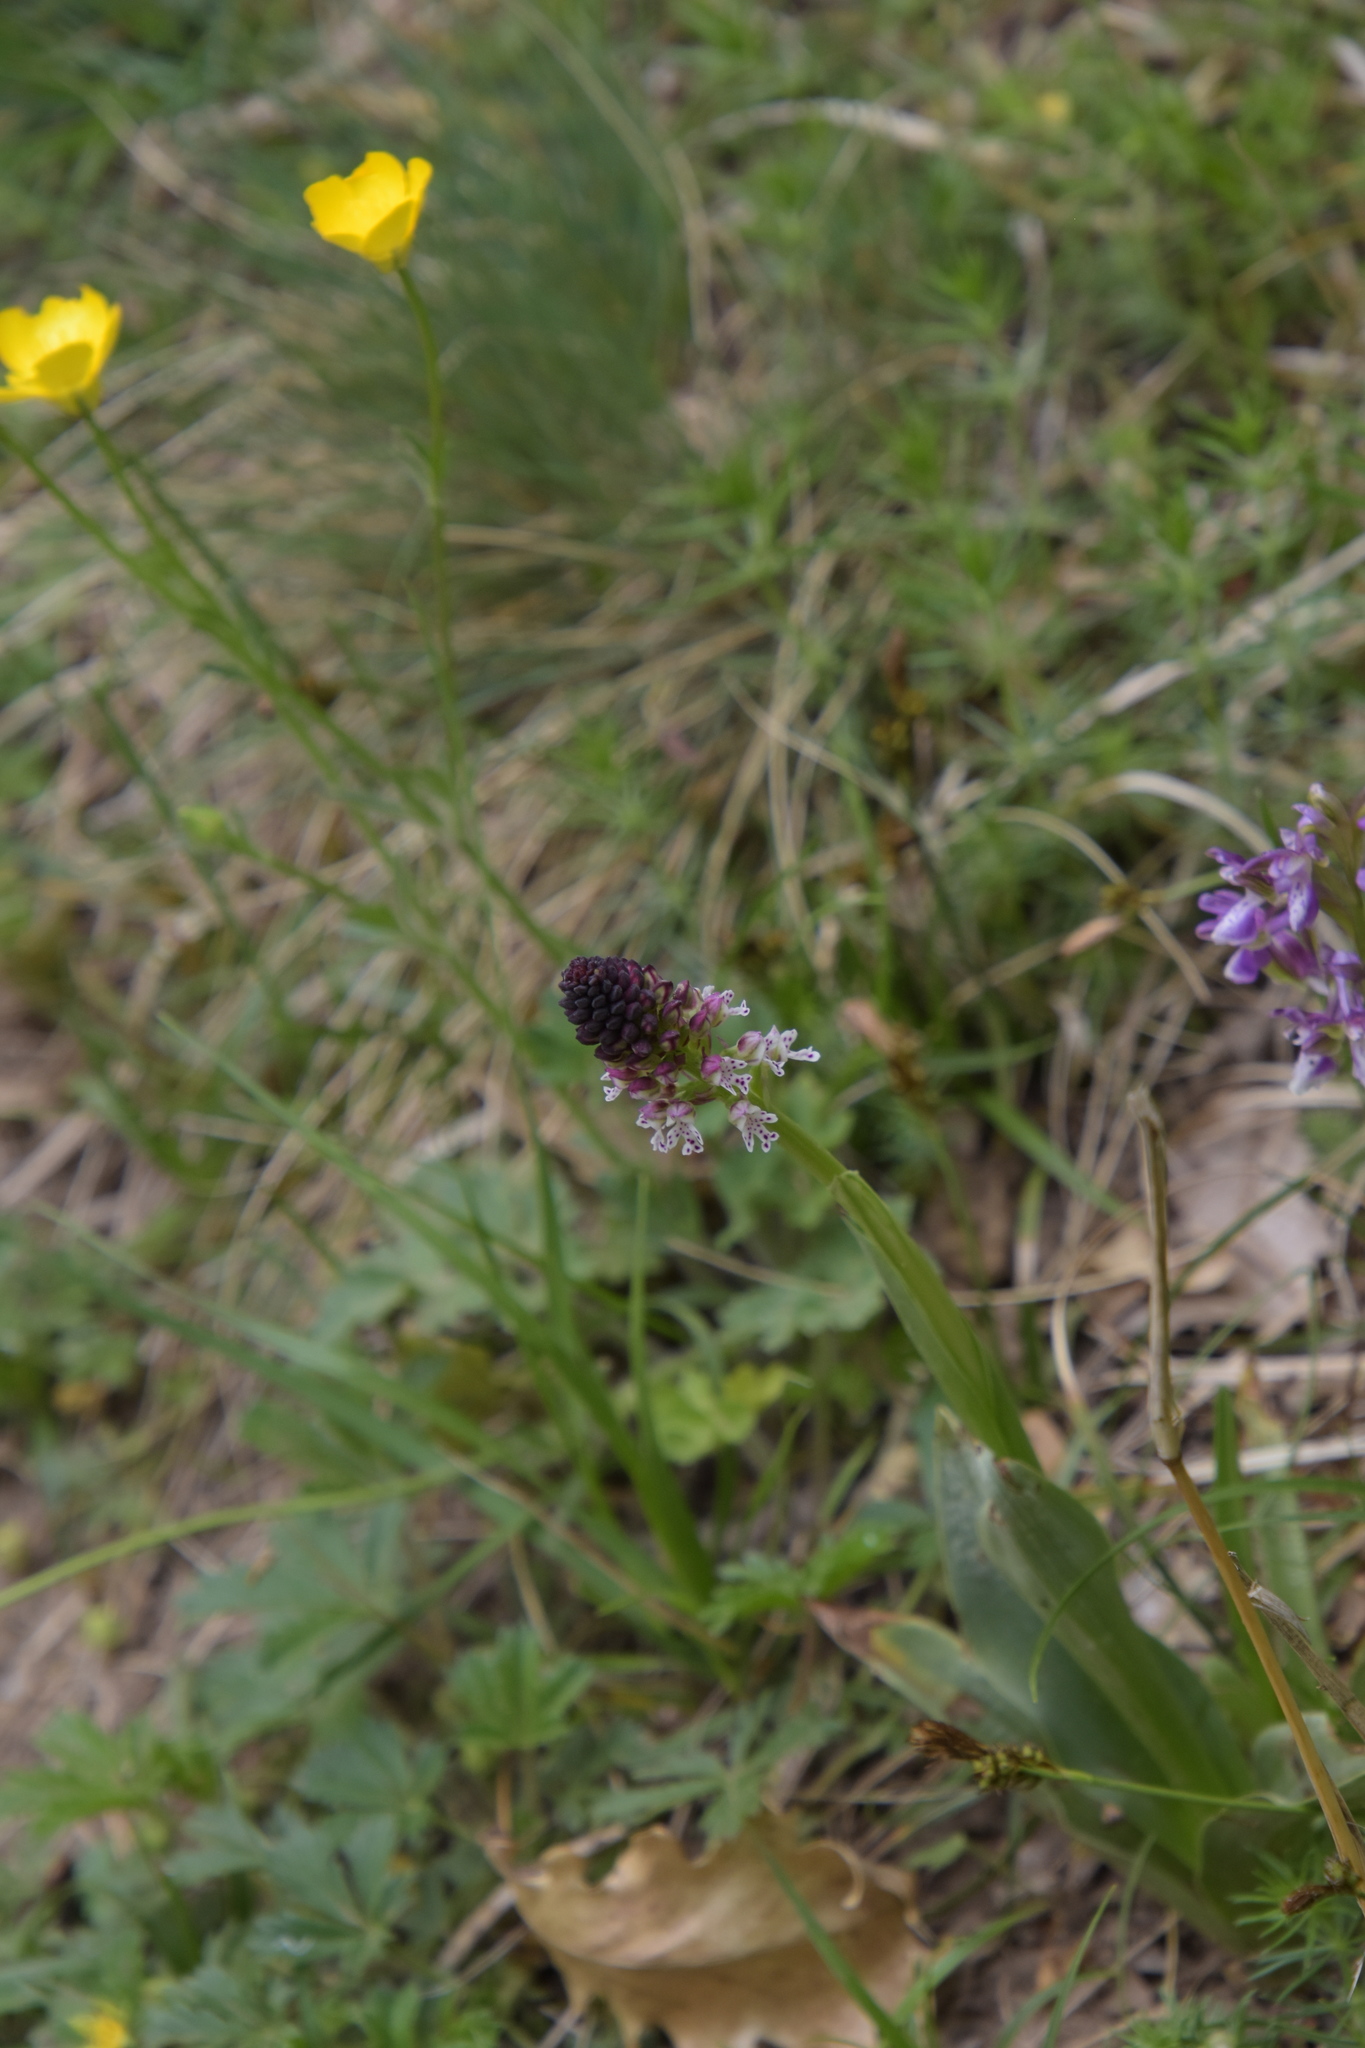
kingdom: Plantae
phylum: Tracheophyta
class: Liliopsida
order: Asparagales
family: Orchidaceae
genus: Neotinea
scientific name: Neotinea ustulata
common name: Burnt orchid
